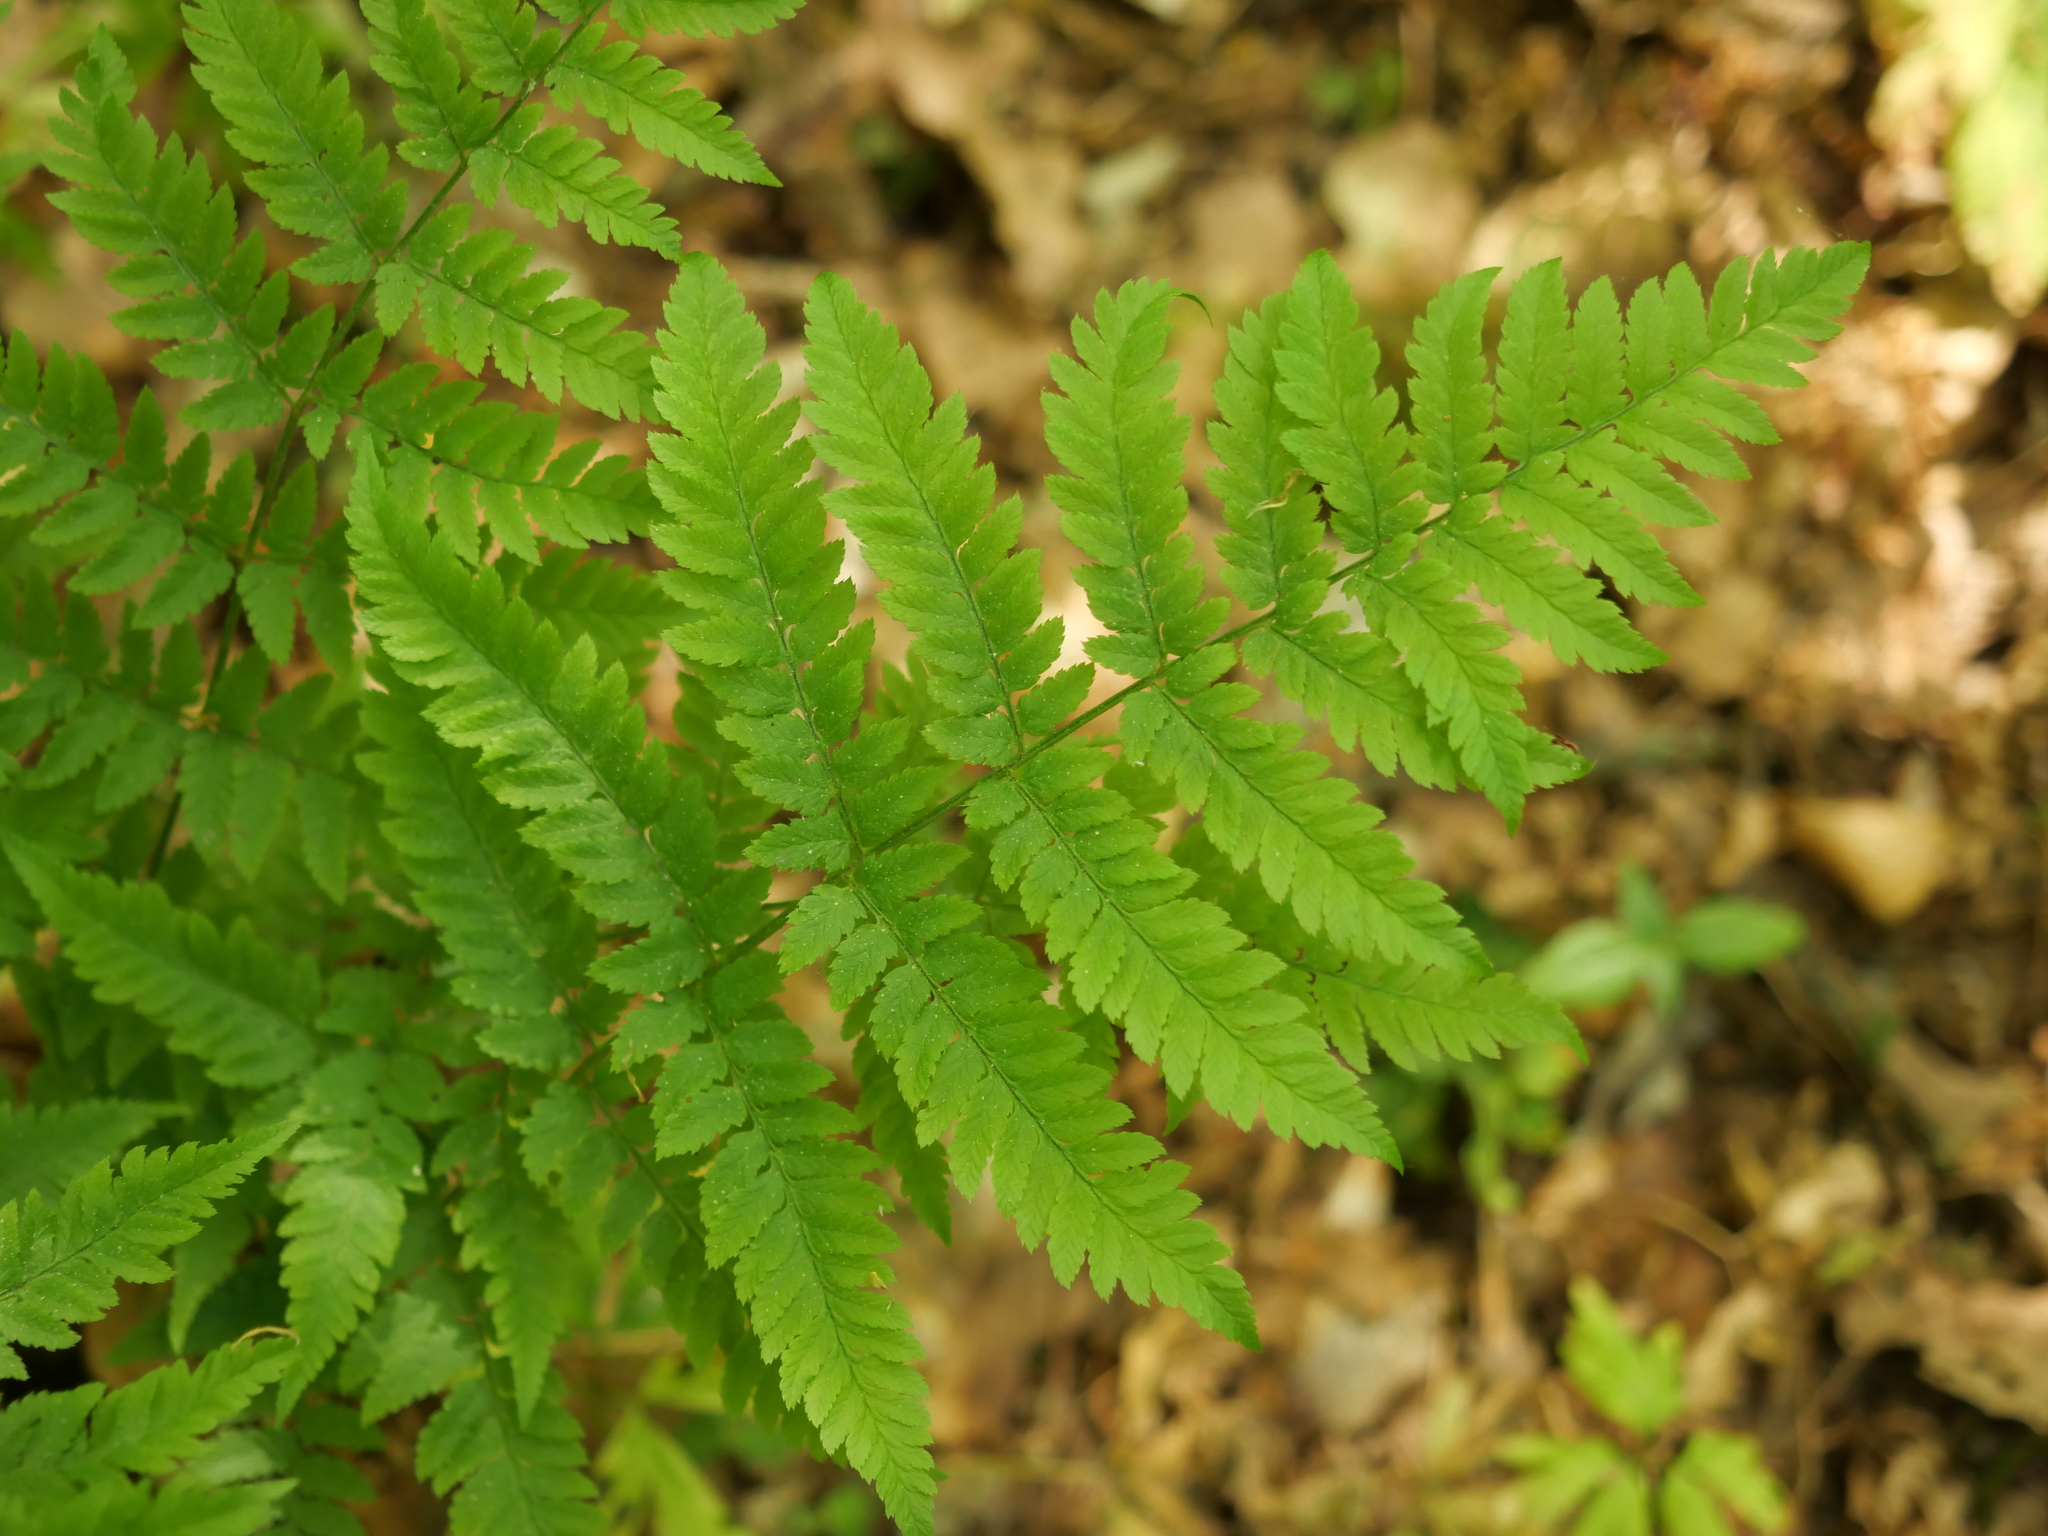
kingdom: Plantae
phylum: Tracheophyta
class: Polypodiopsida
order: Polypodiales
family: Dryopteridaceae
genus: Dryopteris
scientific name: Dryopteris carthusiana
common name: Narrow buckler-fern
